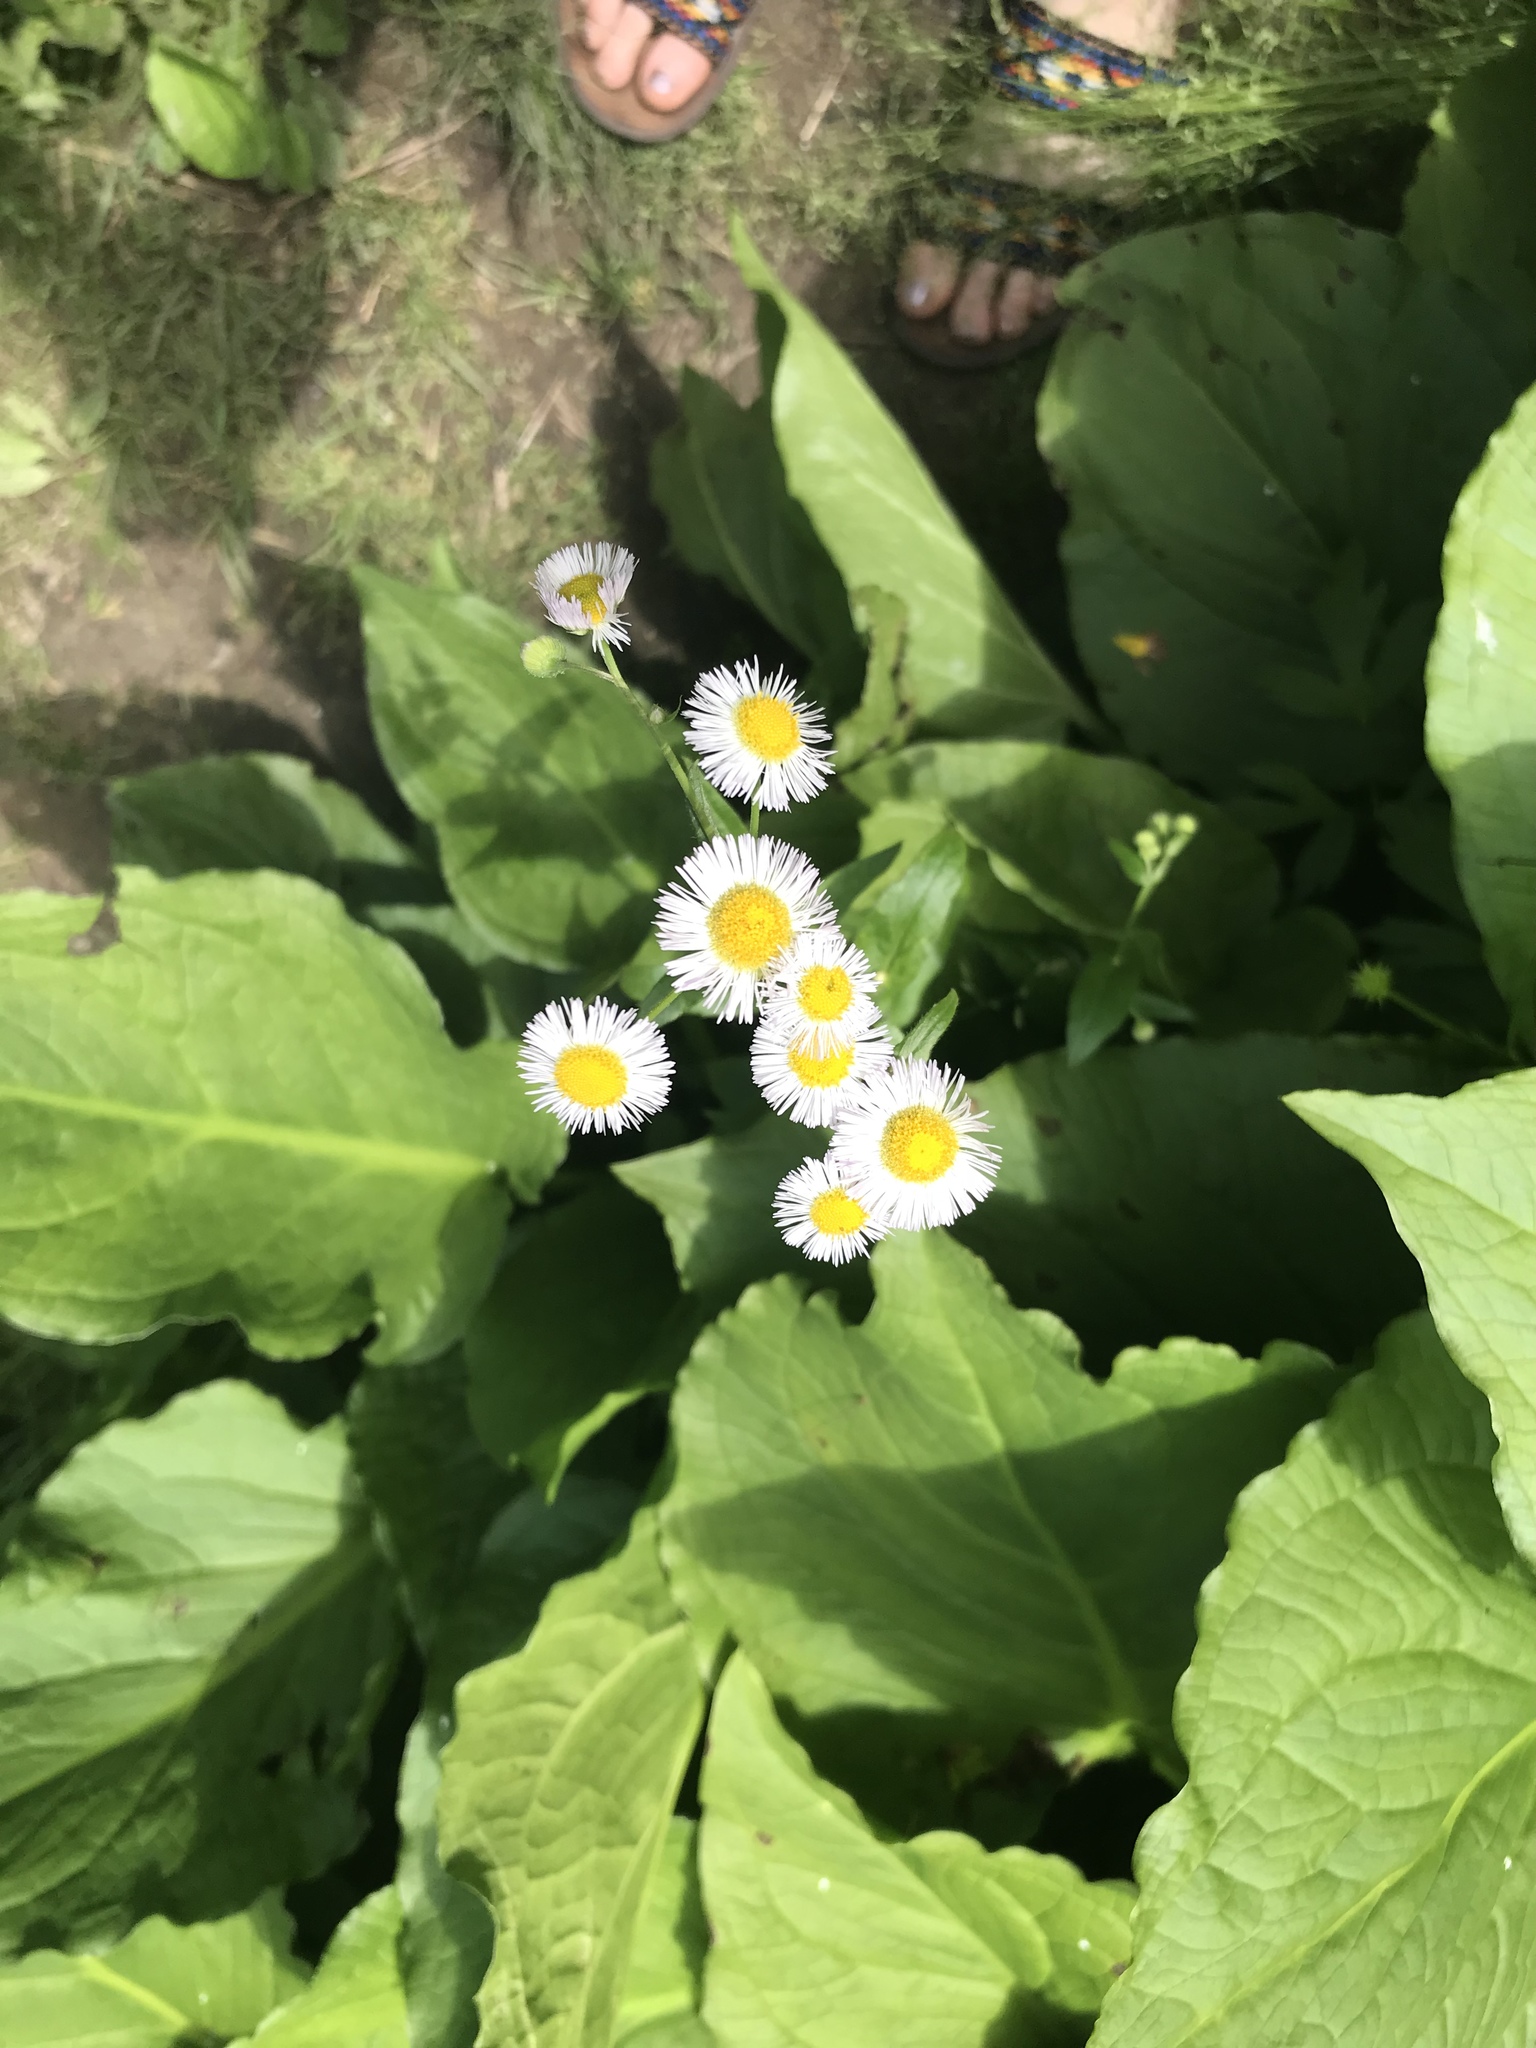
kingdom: Plantae
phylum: Tracheophyta
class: Magnoliopsida
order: Asterales
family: Asteraceae
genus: Erigeron
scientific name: Erigeron philadelphicus
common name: Robin's-plantain
